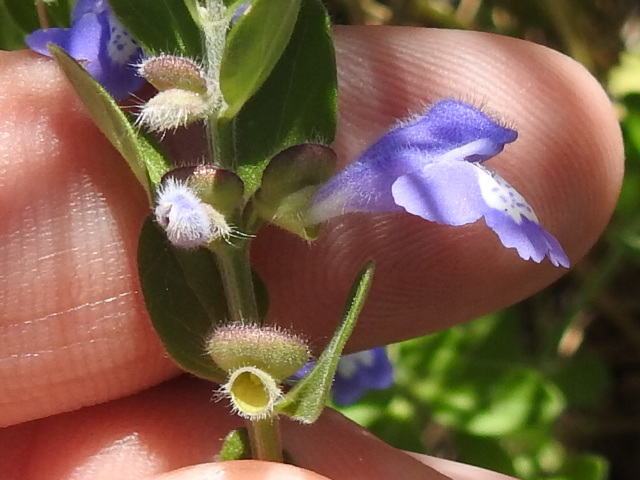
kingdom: Plantae
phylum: Tracheophyta
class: Magnoliopsida
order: Lamiales
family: Lamiaceae
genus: Scutellaria
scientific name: Scutellaria drummondii
